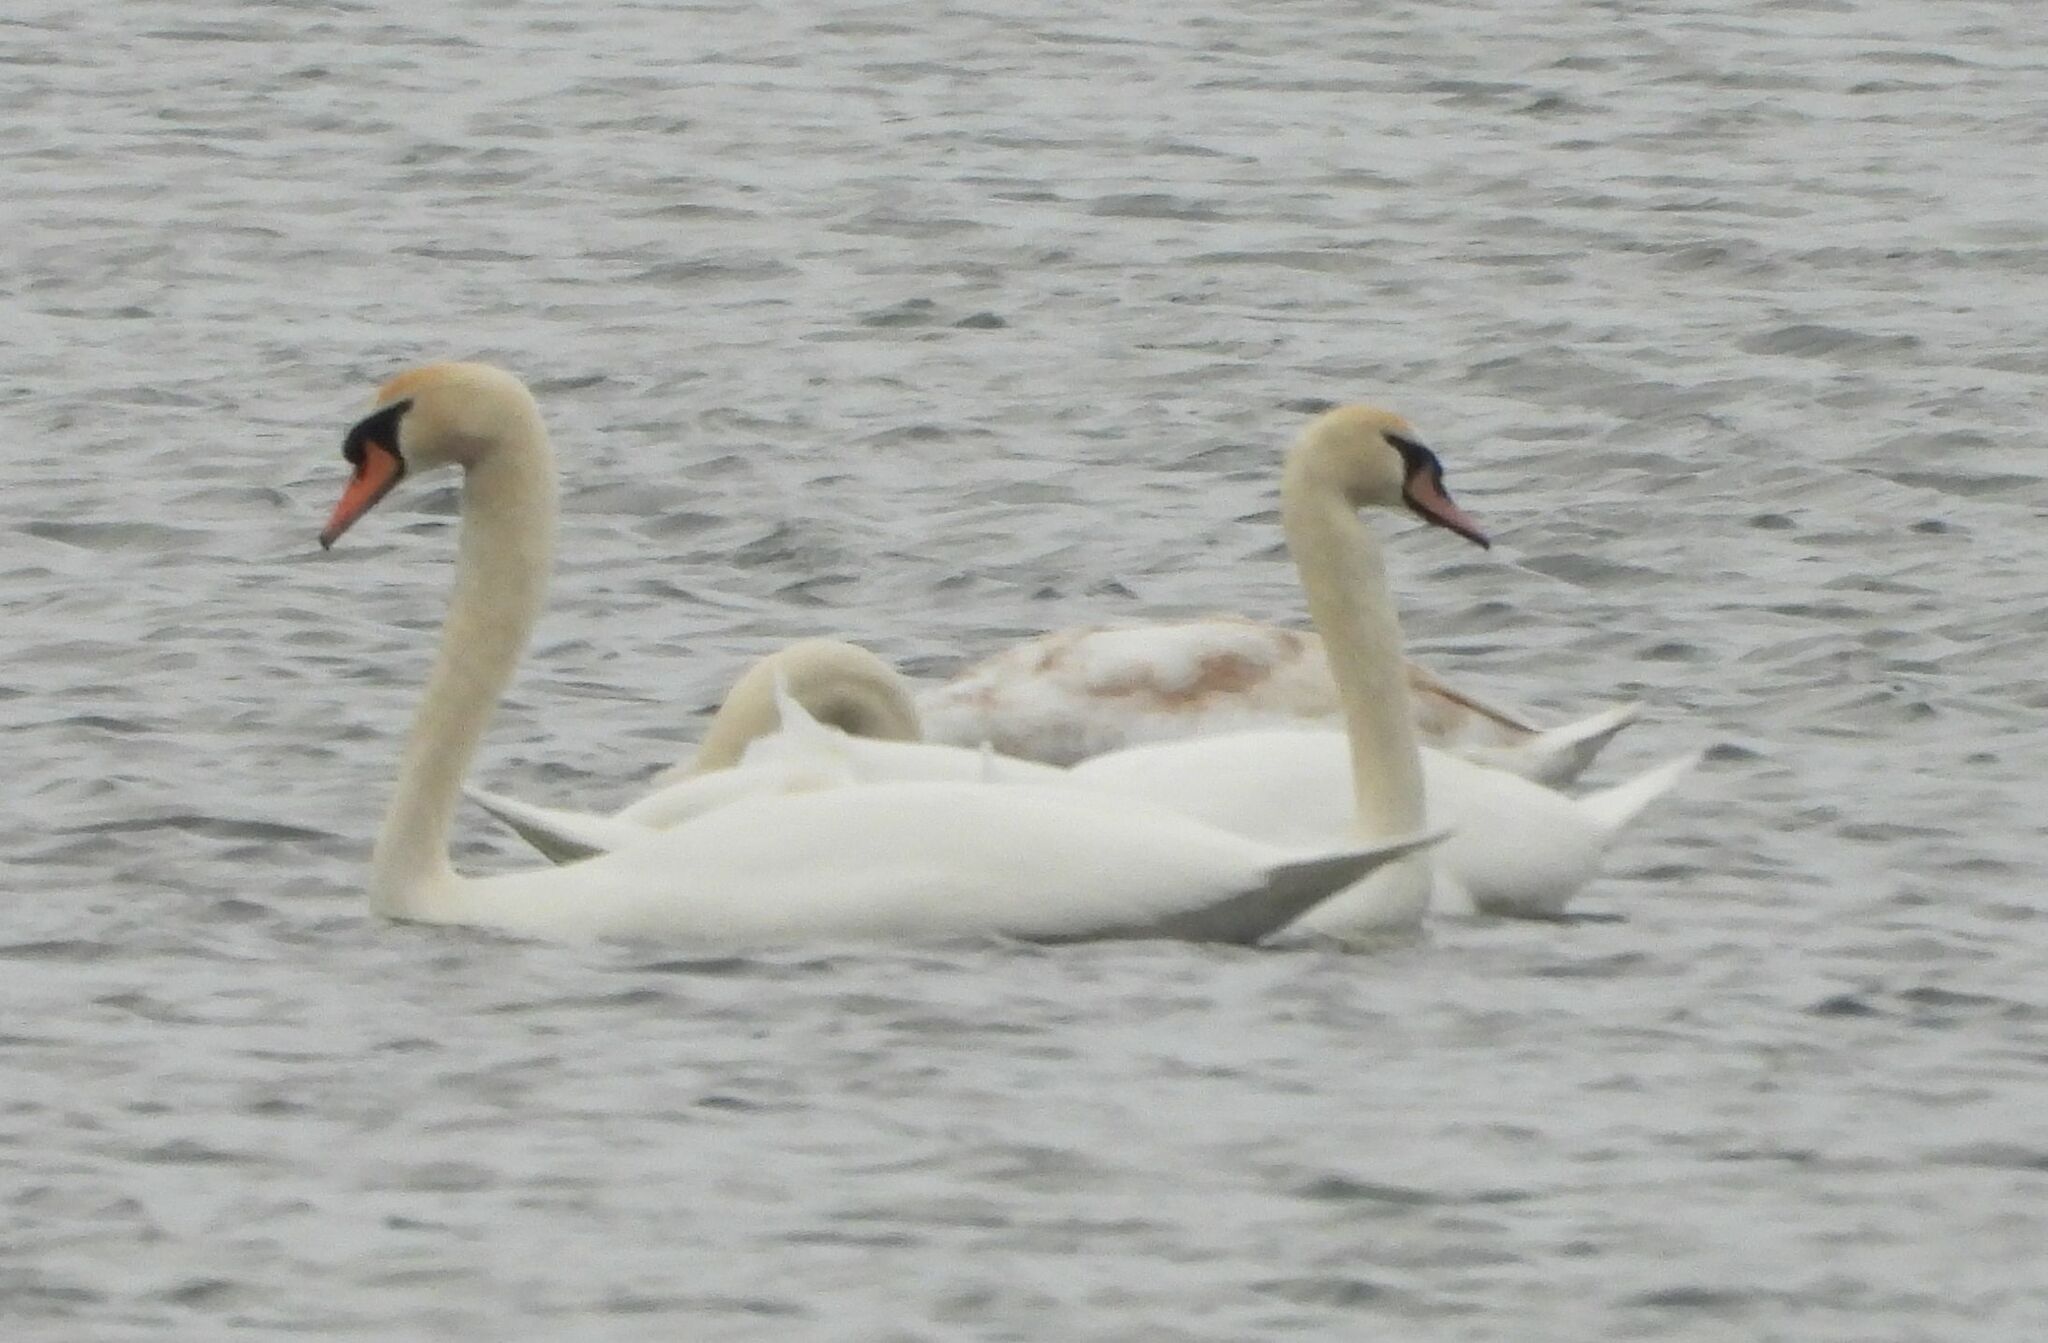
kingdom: Animalia
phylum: Chordata
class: Aves
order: Anseriformes
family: Anatidae
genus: Cygnus
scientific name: Cygnus olor
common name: Mute swan
